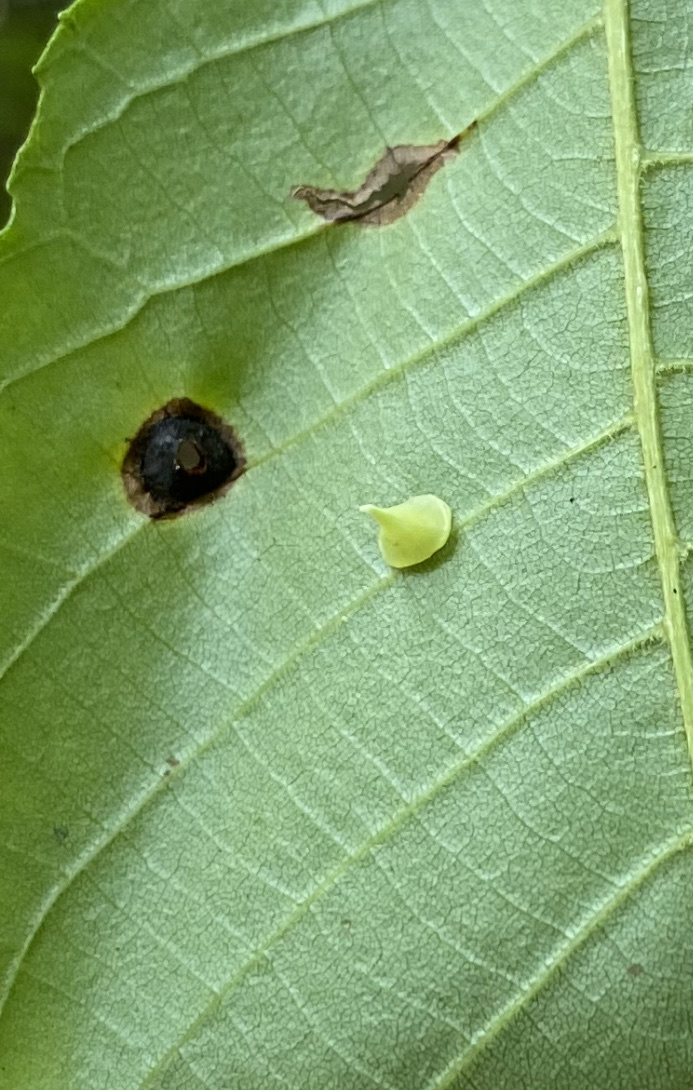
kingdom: Animalia
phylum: Arthropoda
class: Insecta
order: Diptera
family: Cecidomyiidae
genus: Caryomyia
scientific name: Caryomyia sanguinolenta
